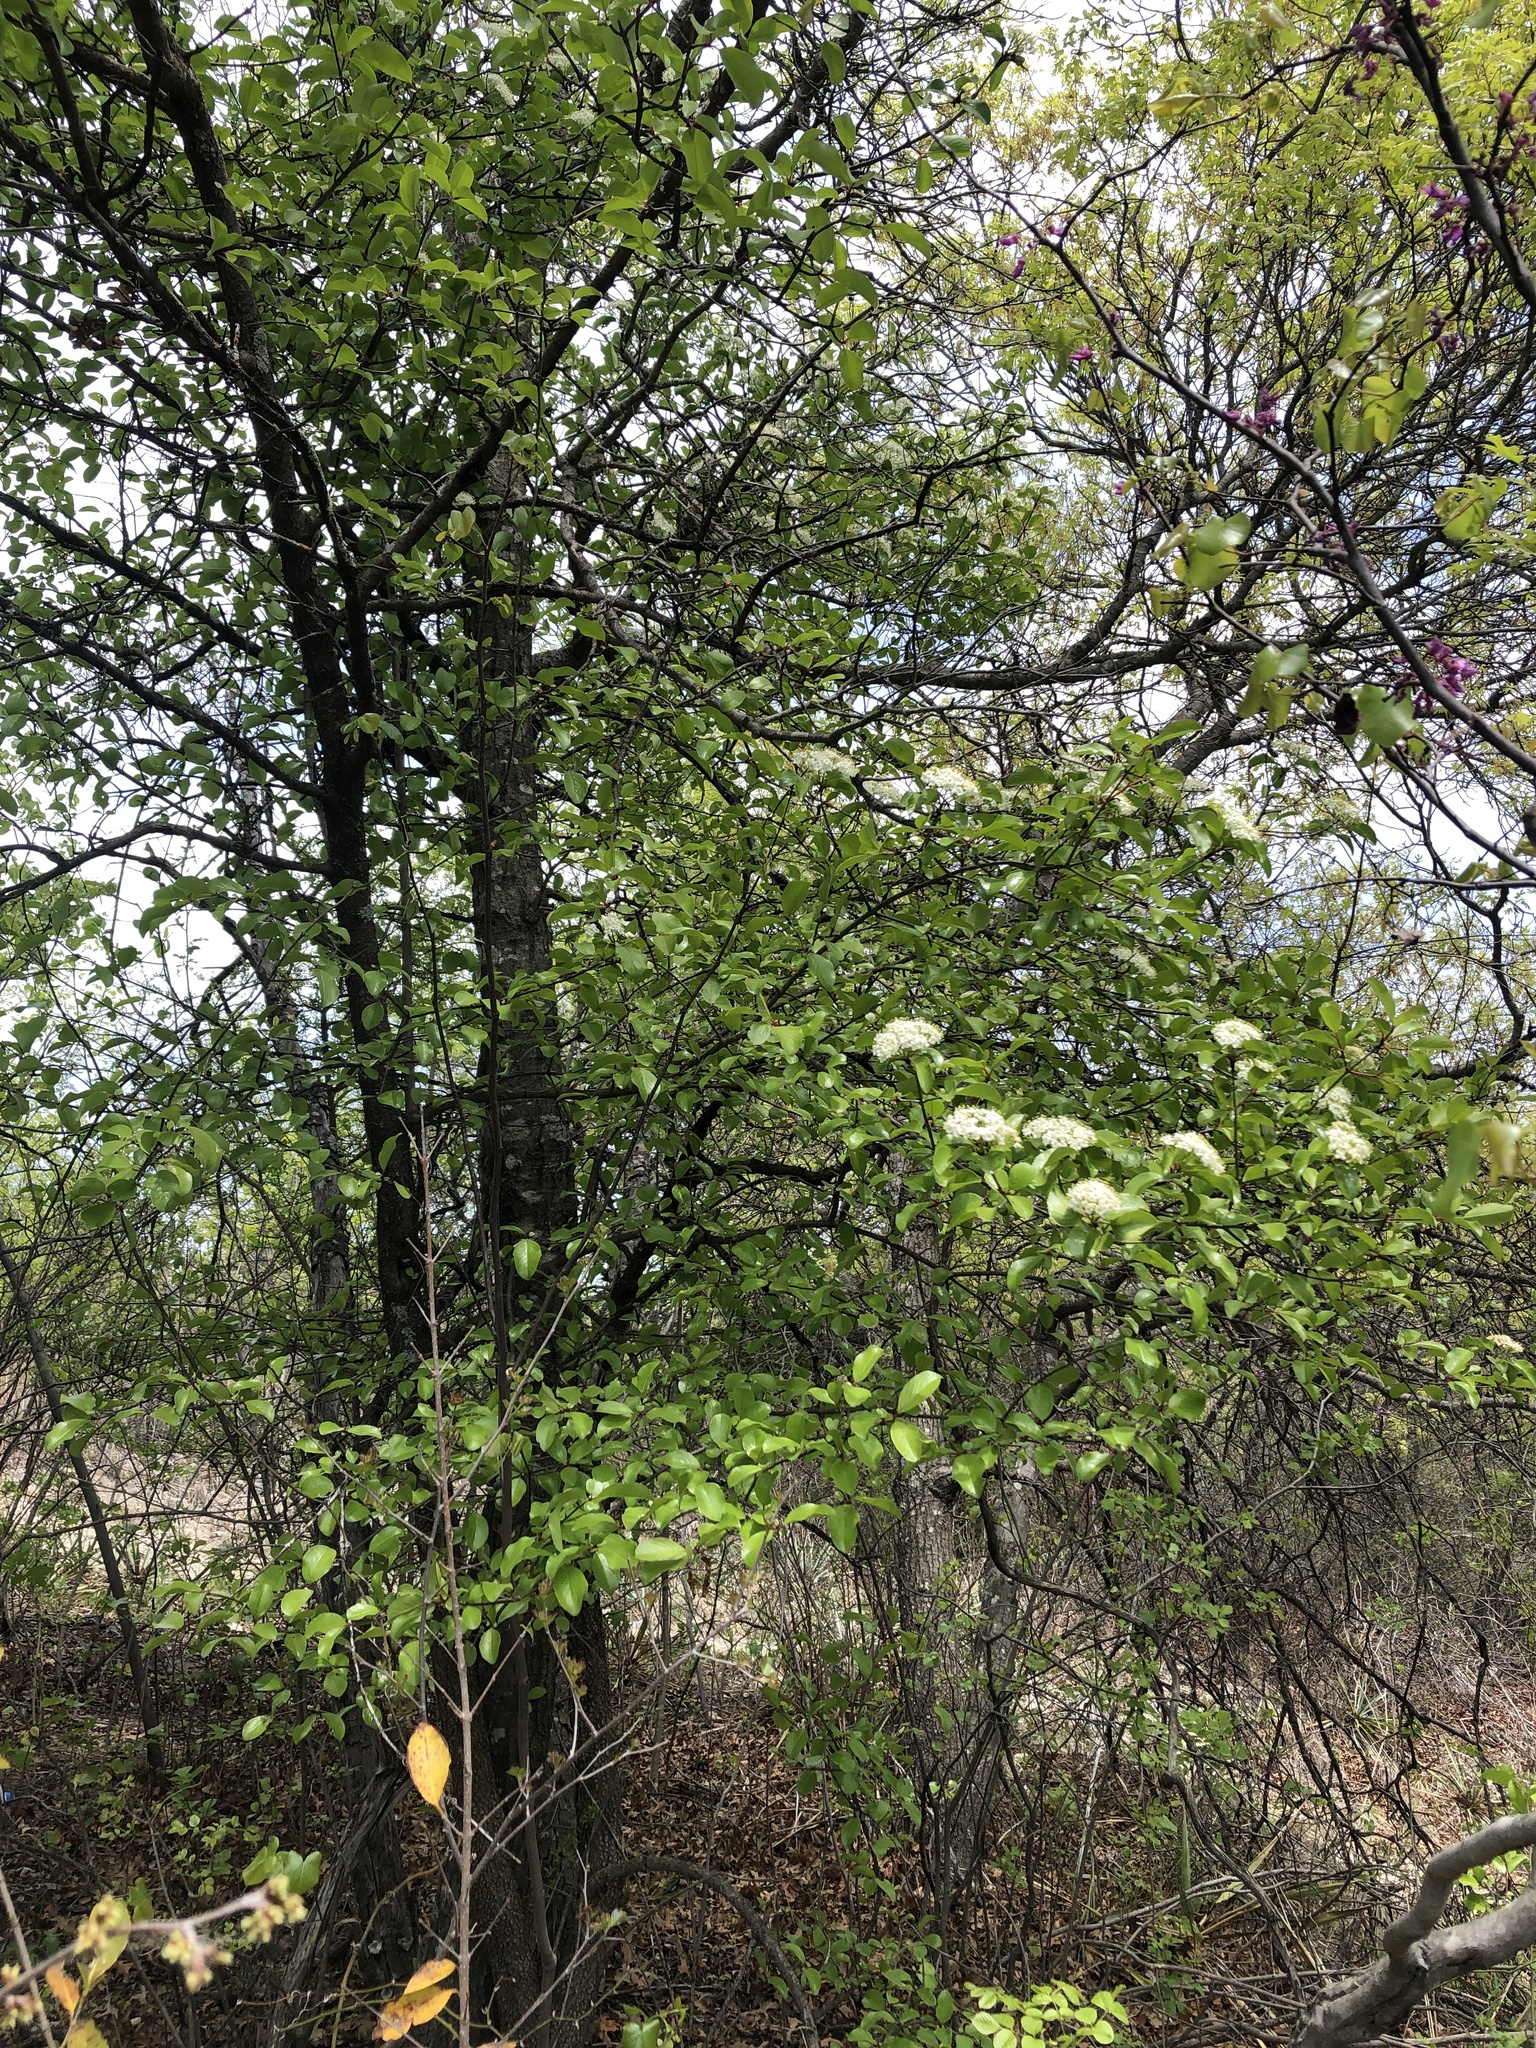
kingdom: Plantae
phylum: Tracheophyta
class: Magnoliopsida
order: Dipsacales
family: Viburnaceae
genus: Viburnum
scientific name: Viburnum rufidulum
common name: Blue haw
